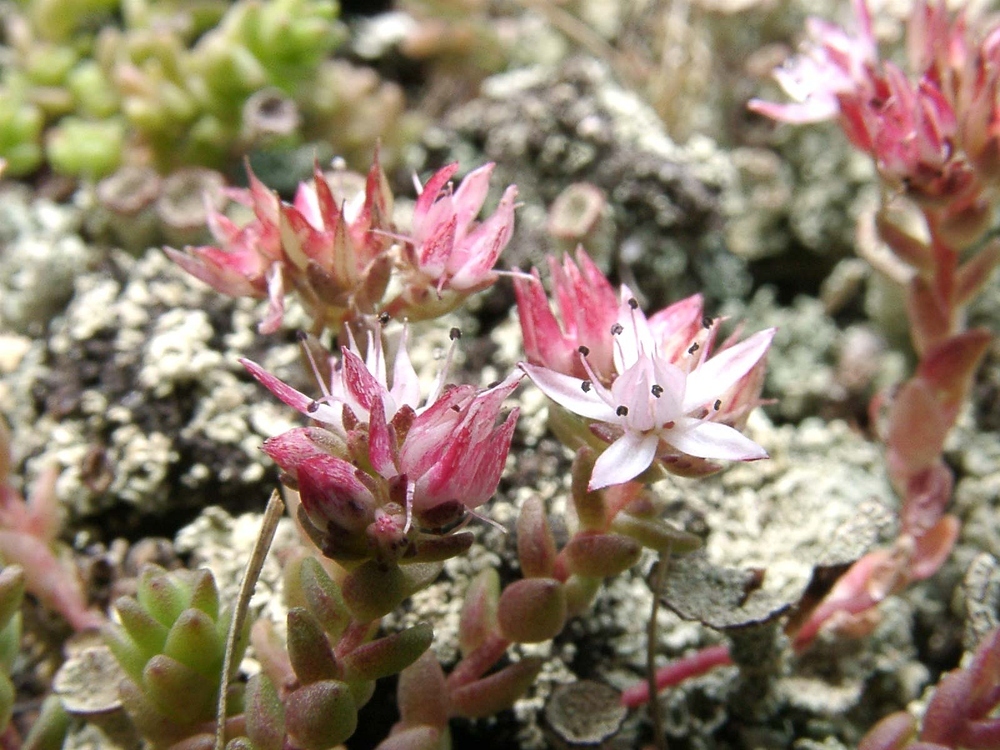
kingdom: Plantae
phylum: Tracheophyta
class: Magnoliopsida
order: Saxifragales
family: Crassulaceae
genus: Sedum
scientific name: Sedum anglicum
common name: English stonecrop
